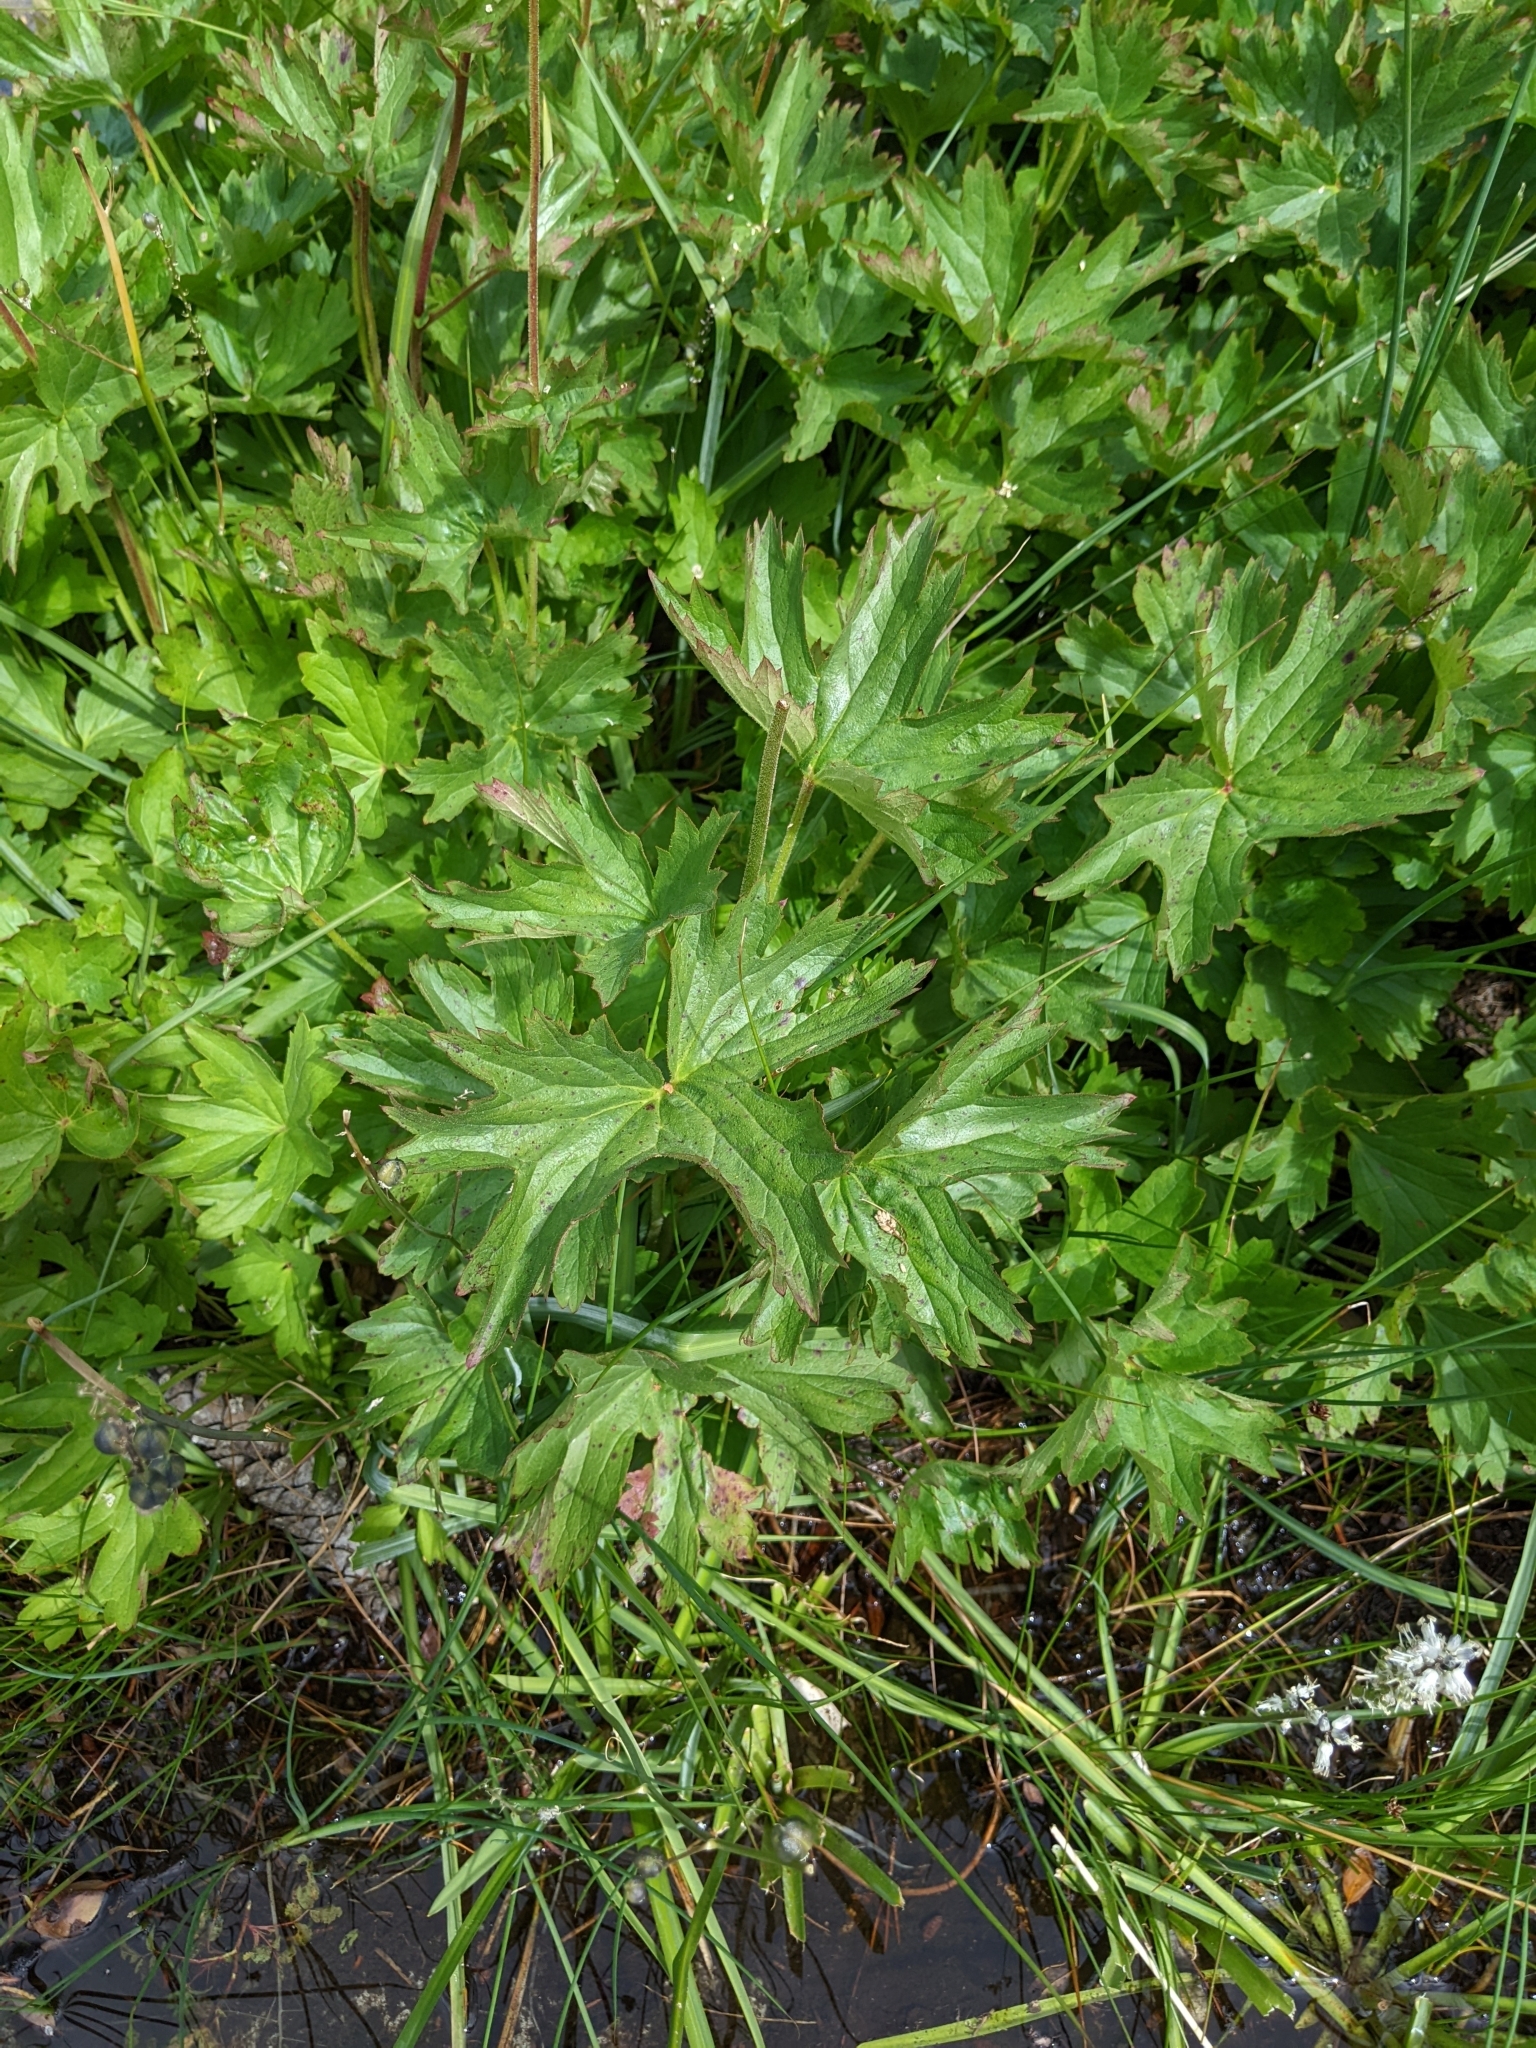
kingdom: Plantae
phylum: Tracheophyta
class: Magnoliopsida
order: Saxifragales
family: Saxifragaceae
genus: Boykinia
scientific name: Boykinia major
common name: Large boykinia
